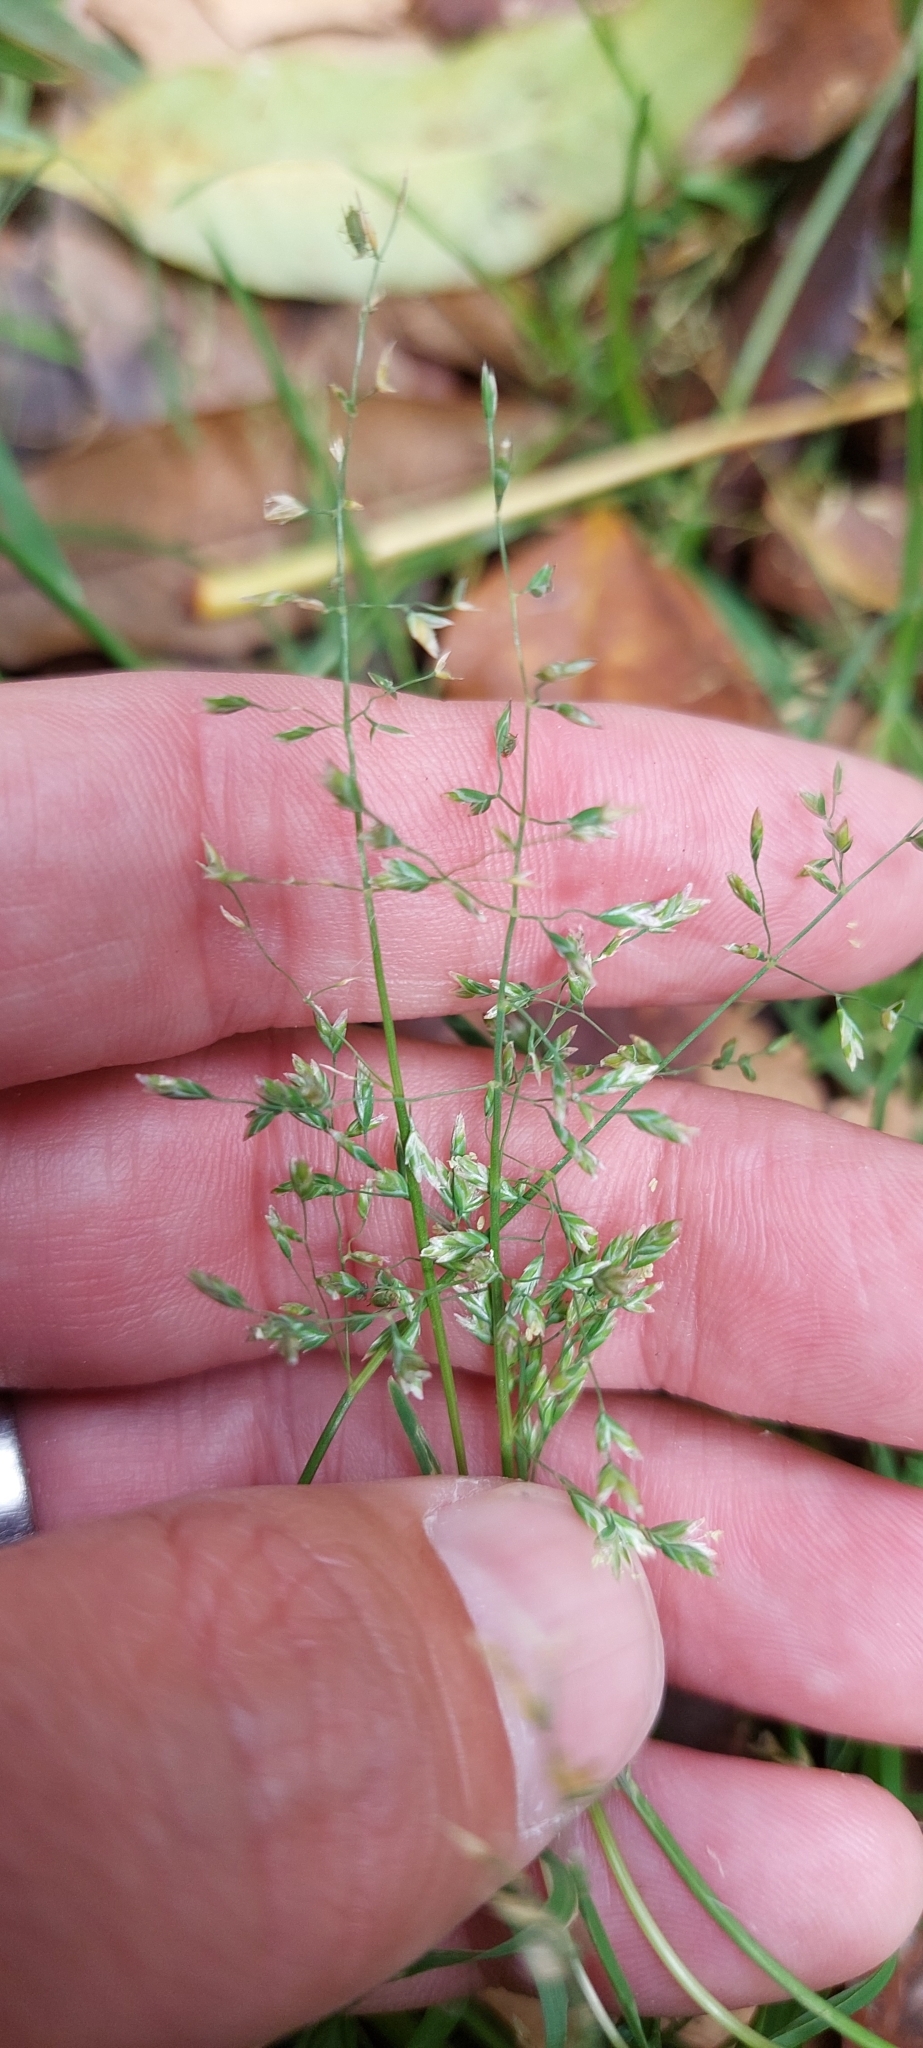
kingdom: Plantae
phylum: Tracheophyta
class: Liliopsida
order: Poales
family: Poaceae
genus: Poa
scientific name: Poa annua
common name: Annual bluegrass
